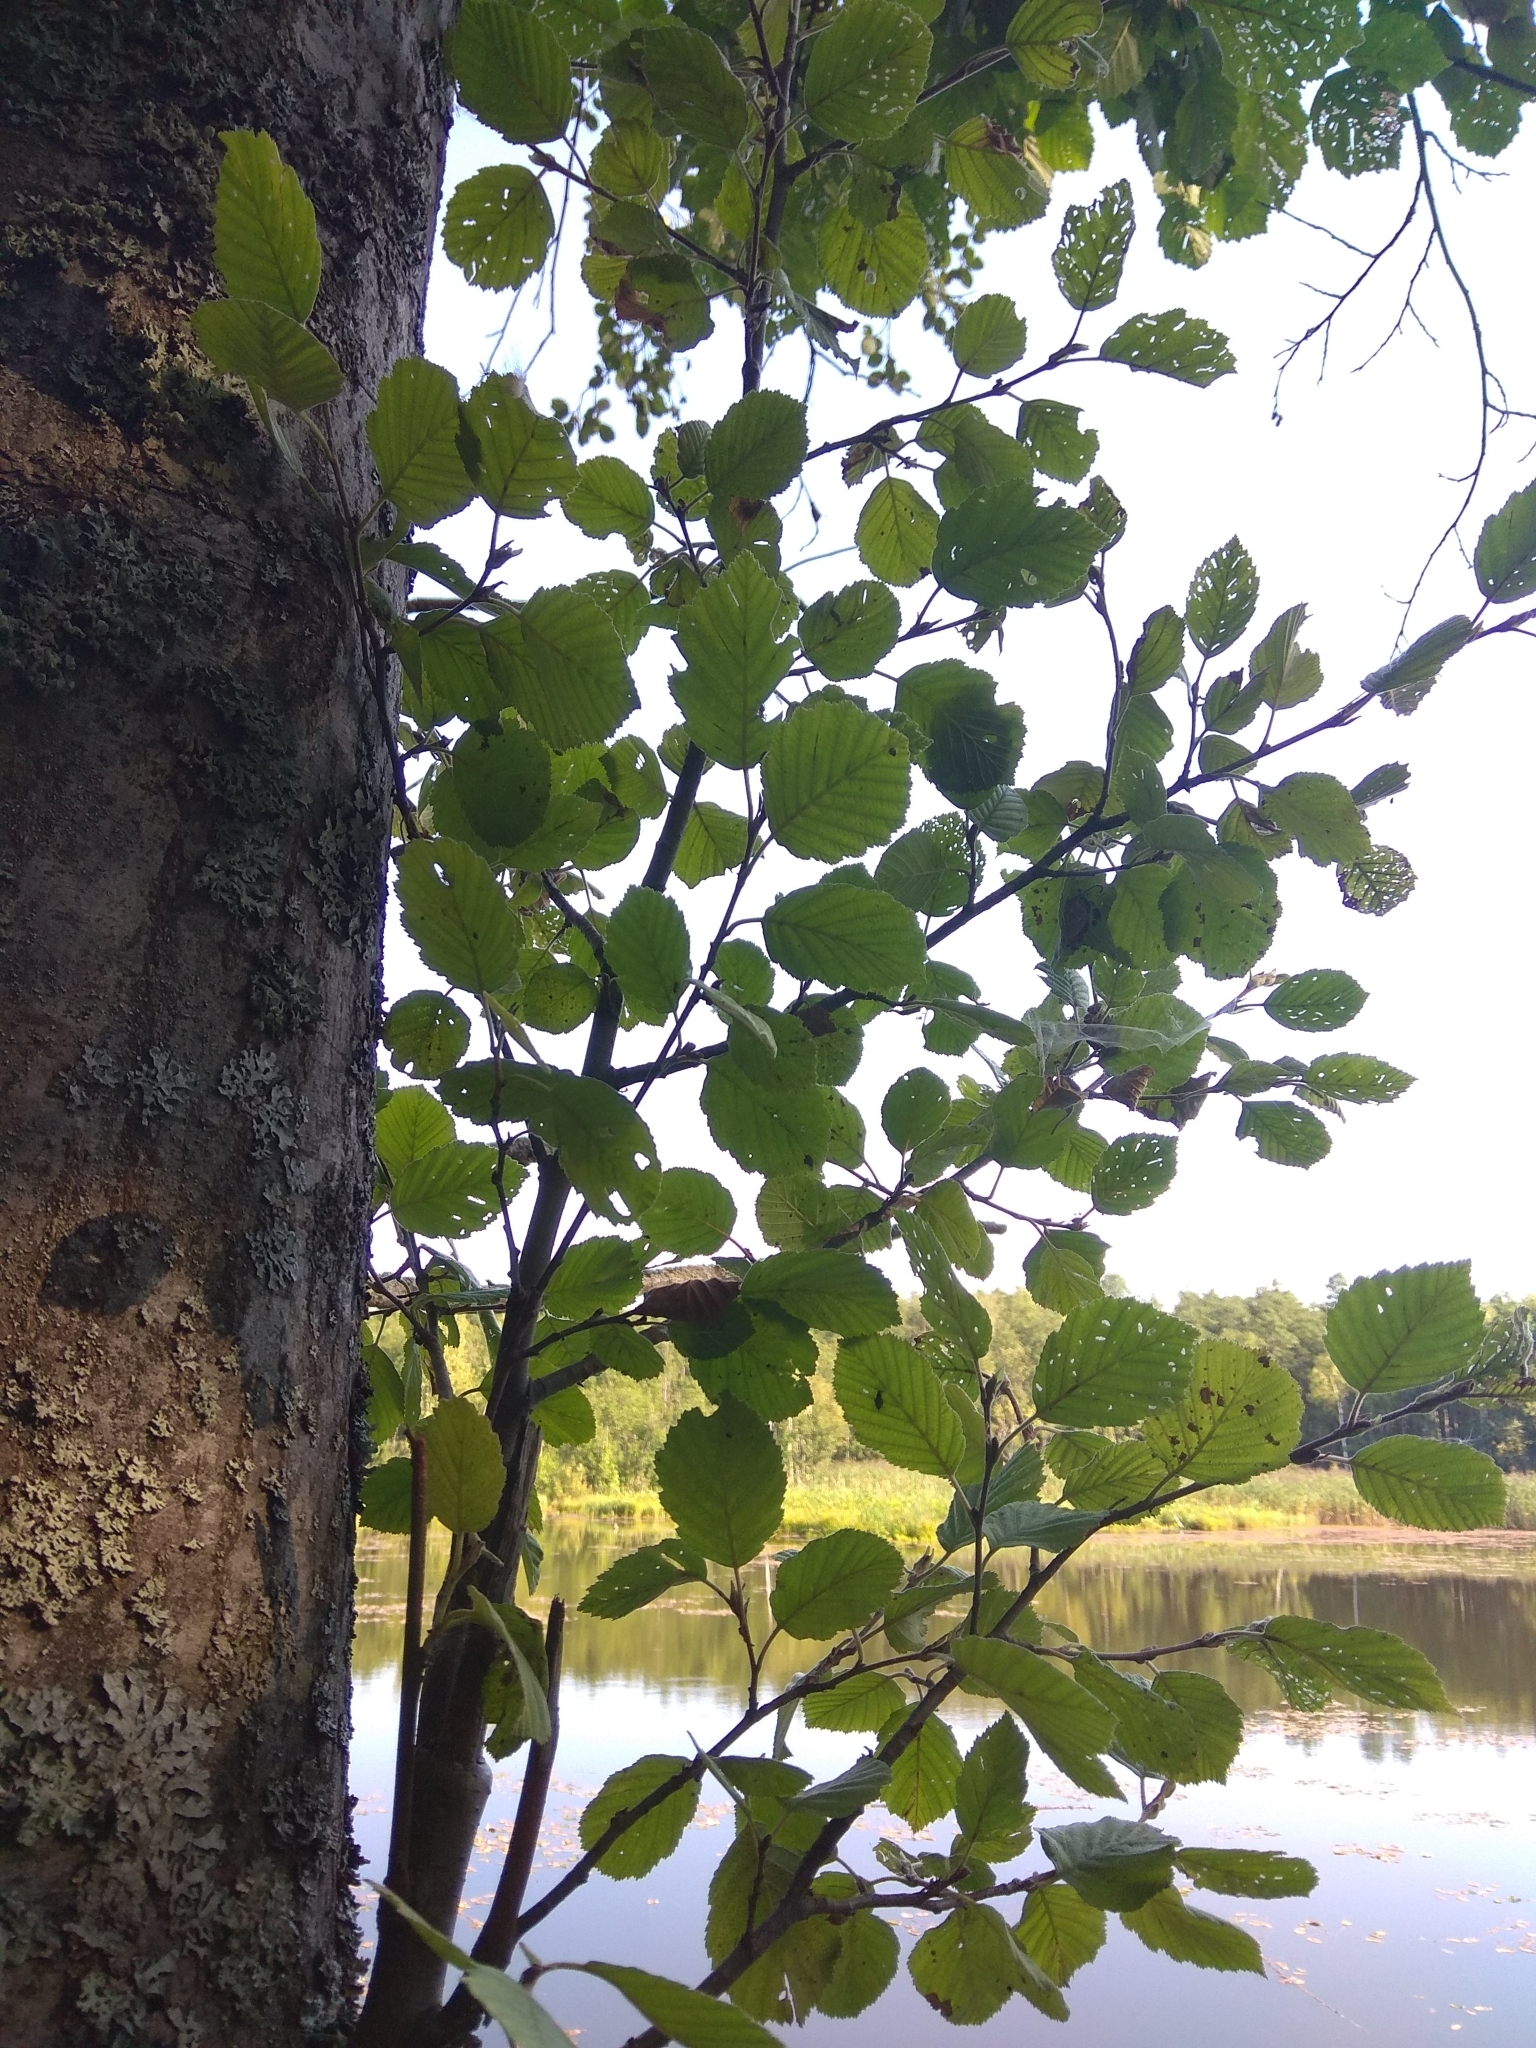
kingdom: Plantae
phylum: Tracheophyta
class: Magnoliopsida
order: Fagales
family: Betulaceae
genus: Alnus
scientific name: Alnus incana
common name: Grey alder
